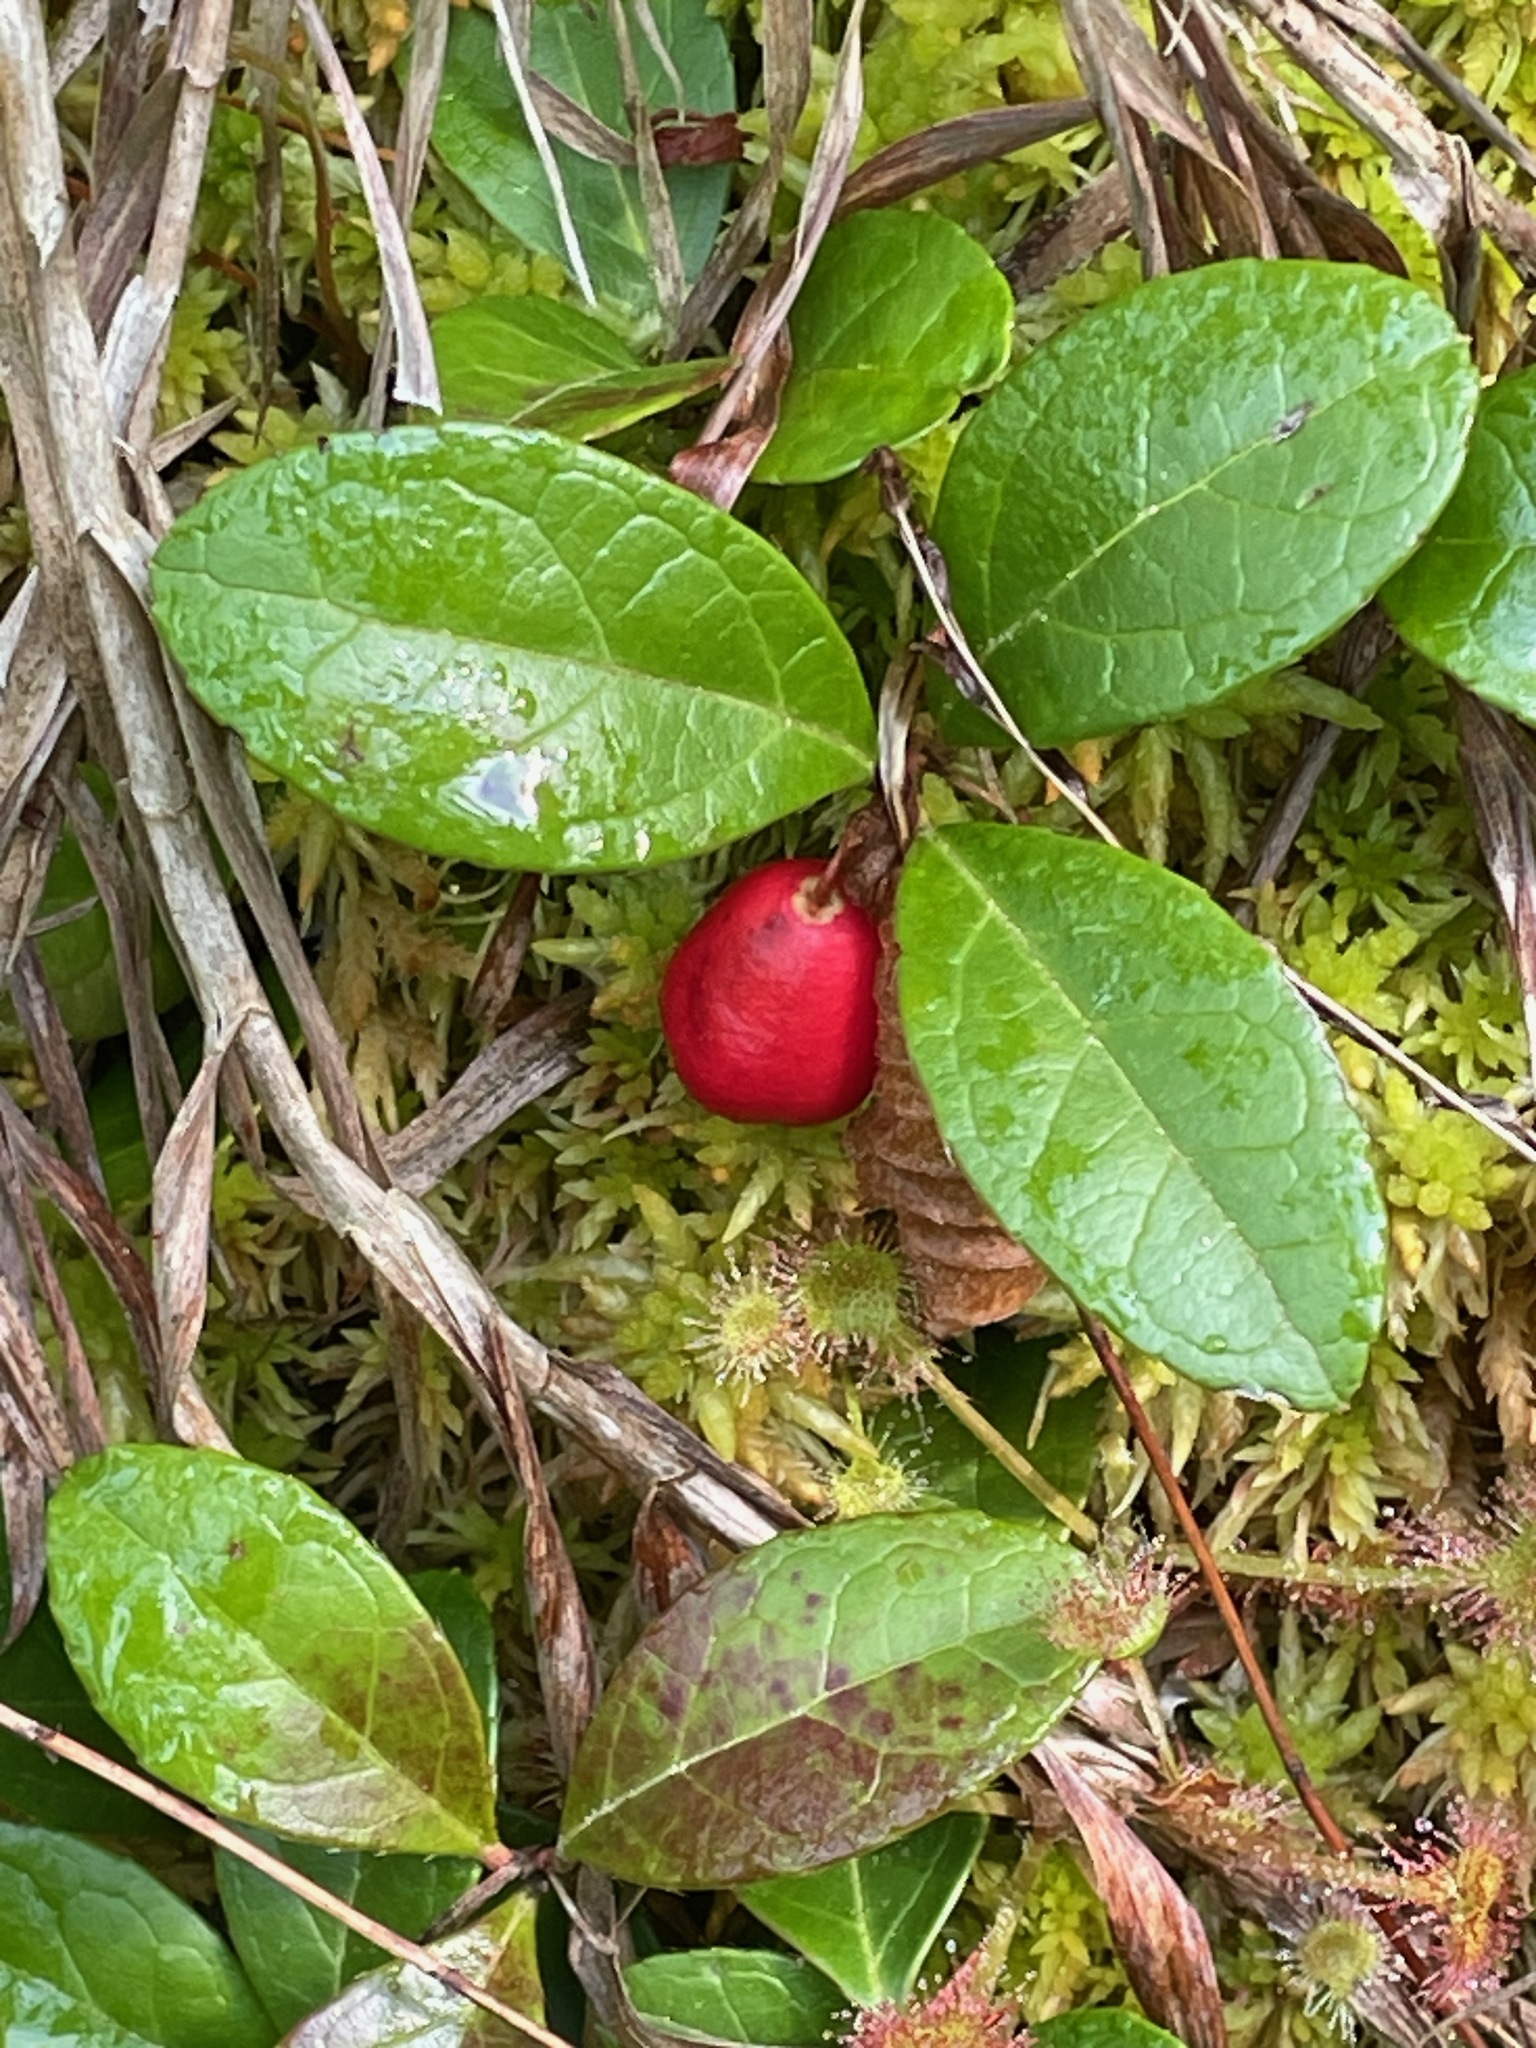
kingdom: Plantae
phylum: Tracheophyta
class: Magnoliopsida
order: Ericales
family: Ericaceae
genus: Gaultheria
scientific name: Gaultheria procumbens
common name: Checkerberry
